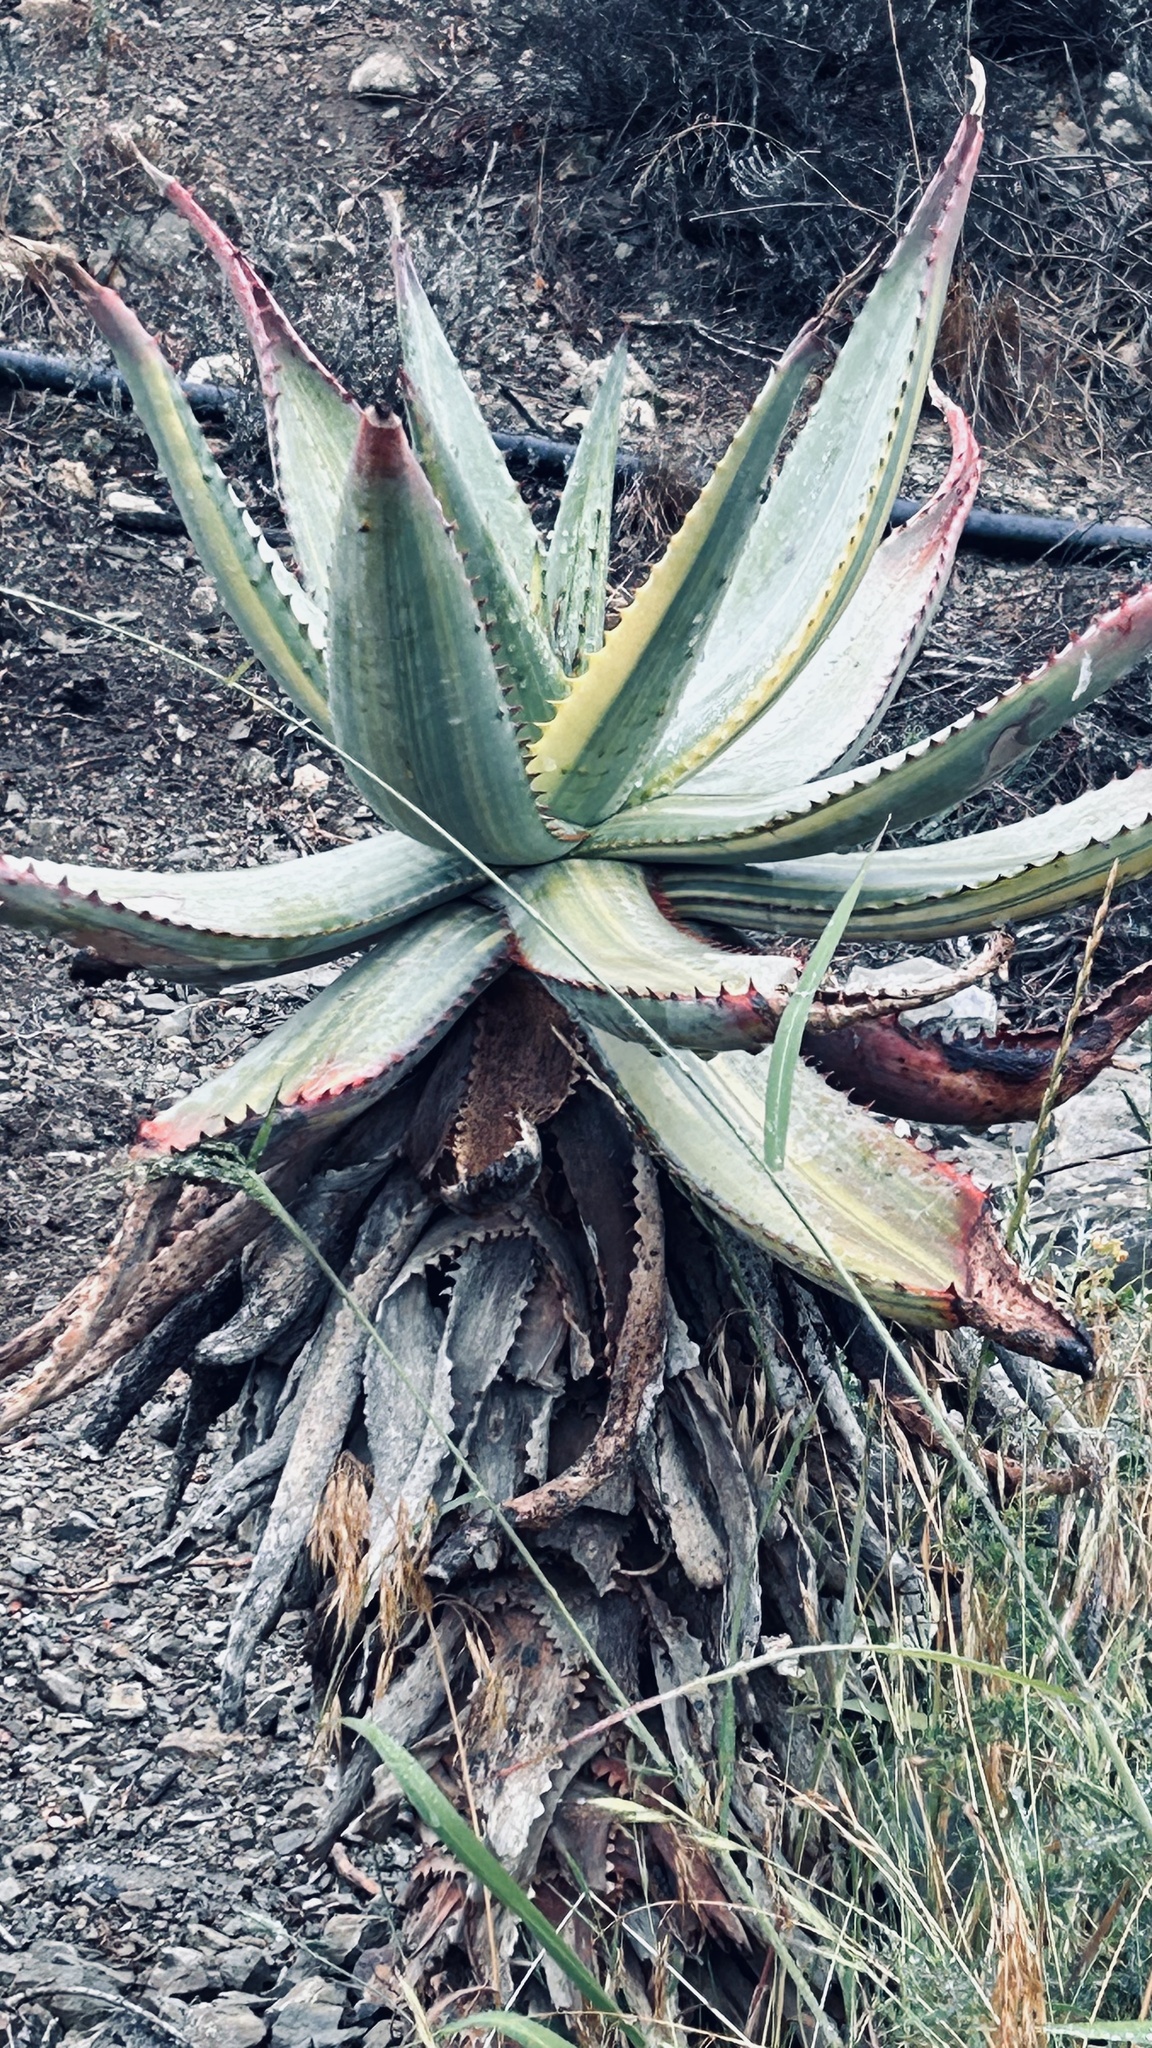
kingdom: Plantae
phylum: Tracheophyta
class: Liliopsida
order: Asparagales
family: Asphodelaceae
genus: Aloe
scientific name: Aloe ferox
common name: Bitter aloe
